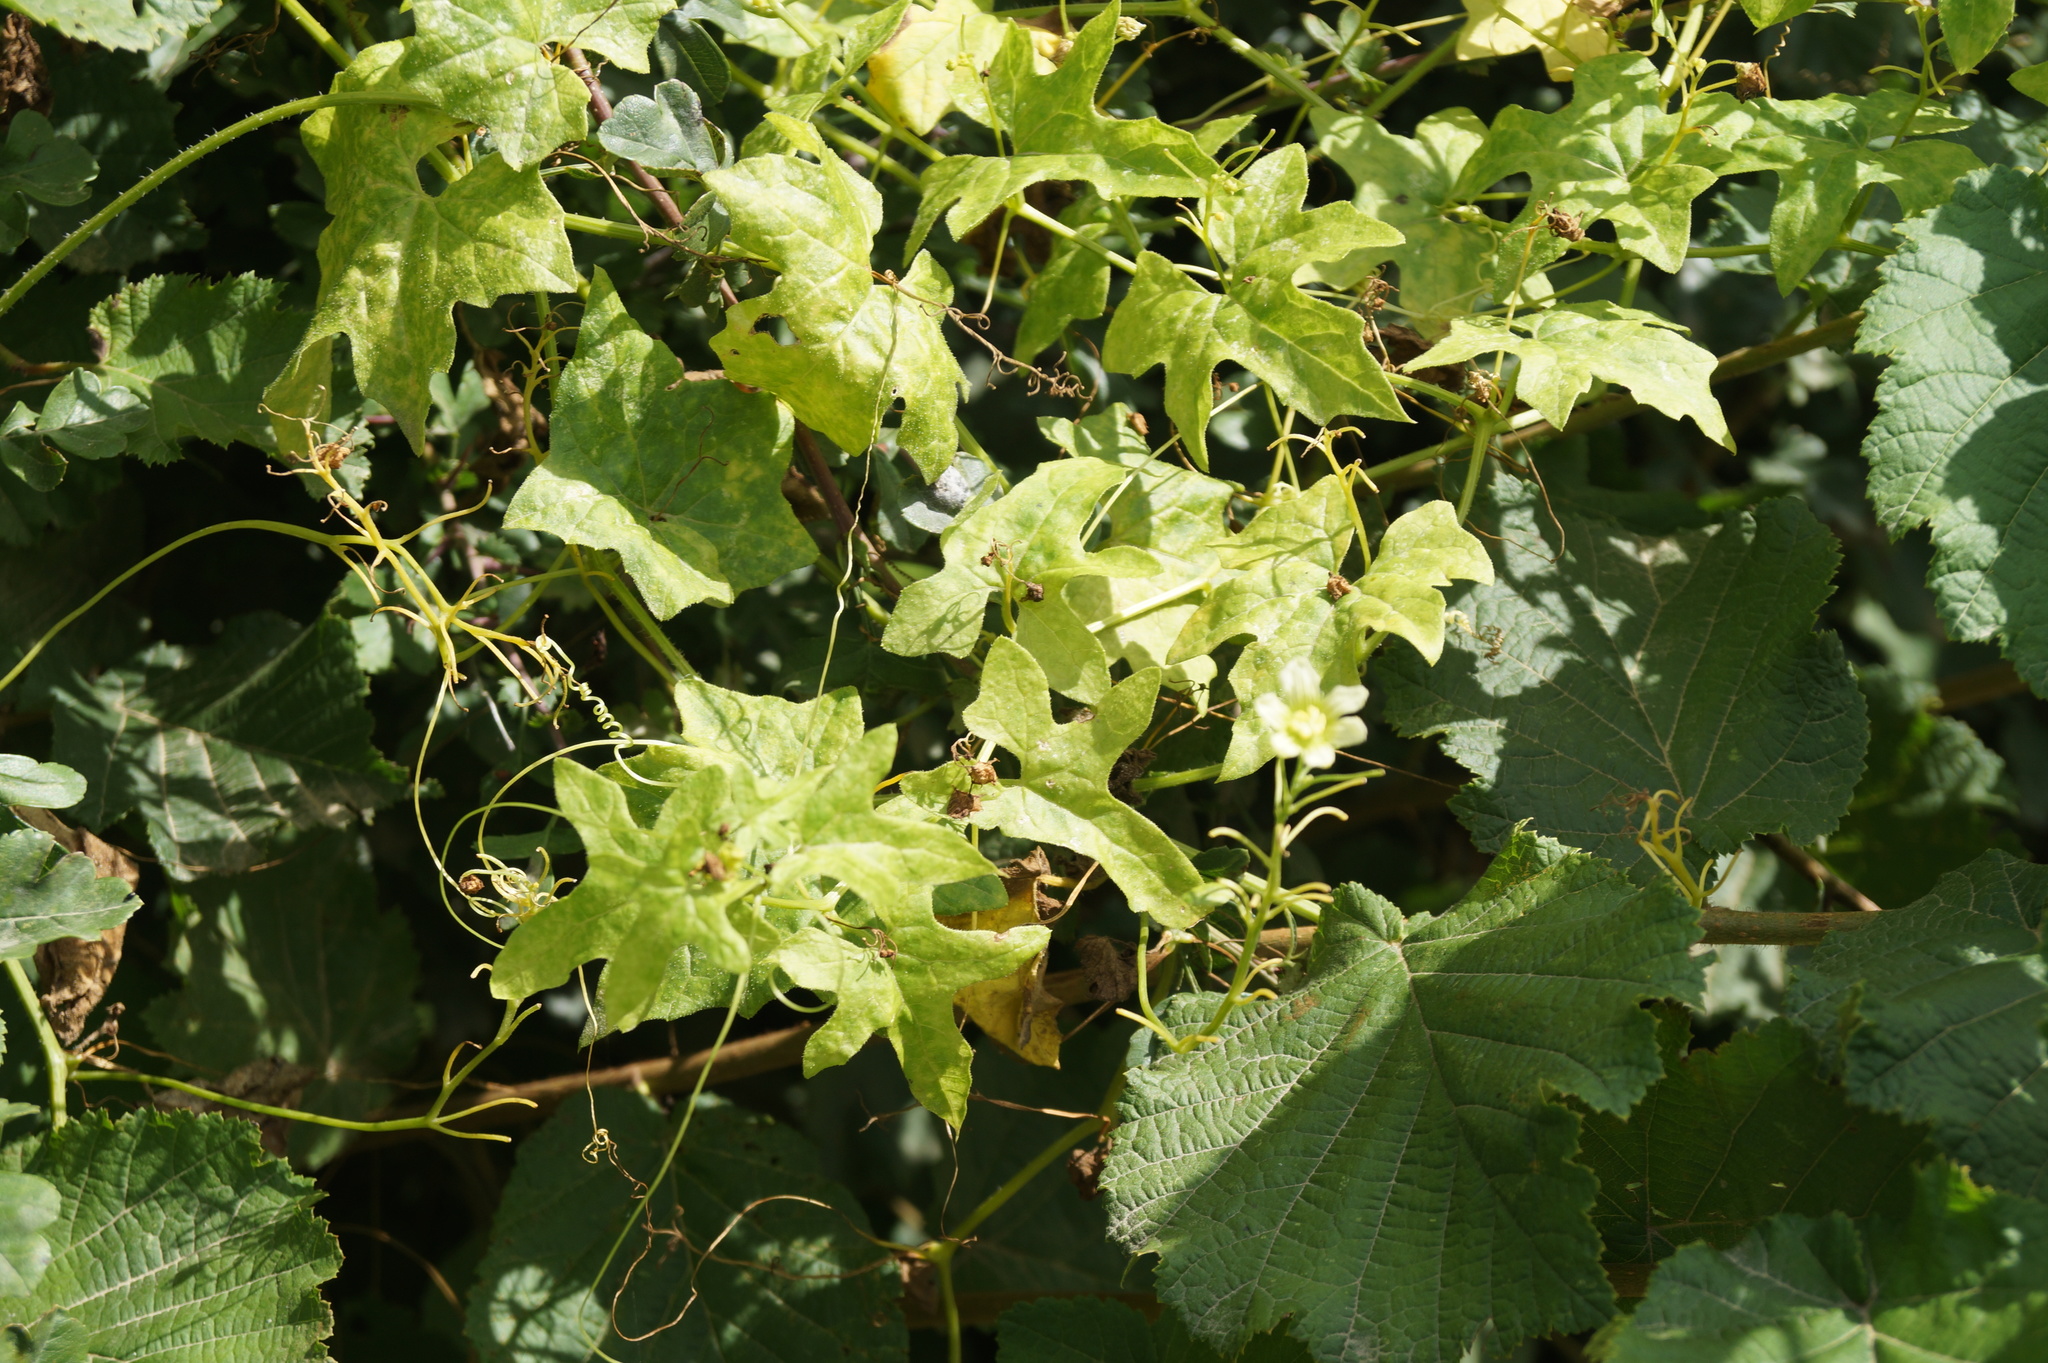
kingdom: Plantae
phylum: Tracheophyta
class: Magnoliopsida
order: Cucurbitales
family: Cucurbitaceae
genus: Bryonia
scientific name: Bryonia dioica
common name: White bryony
